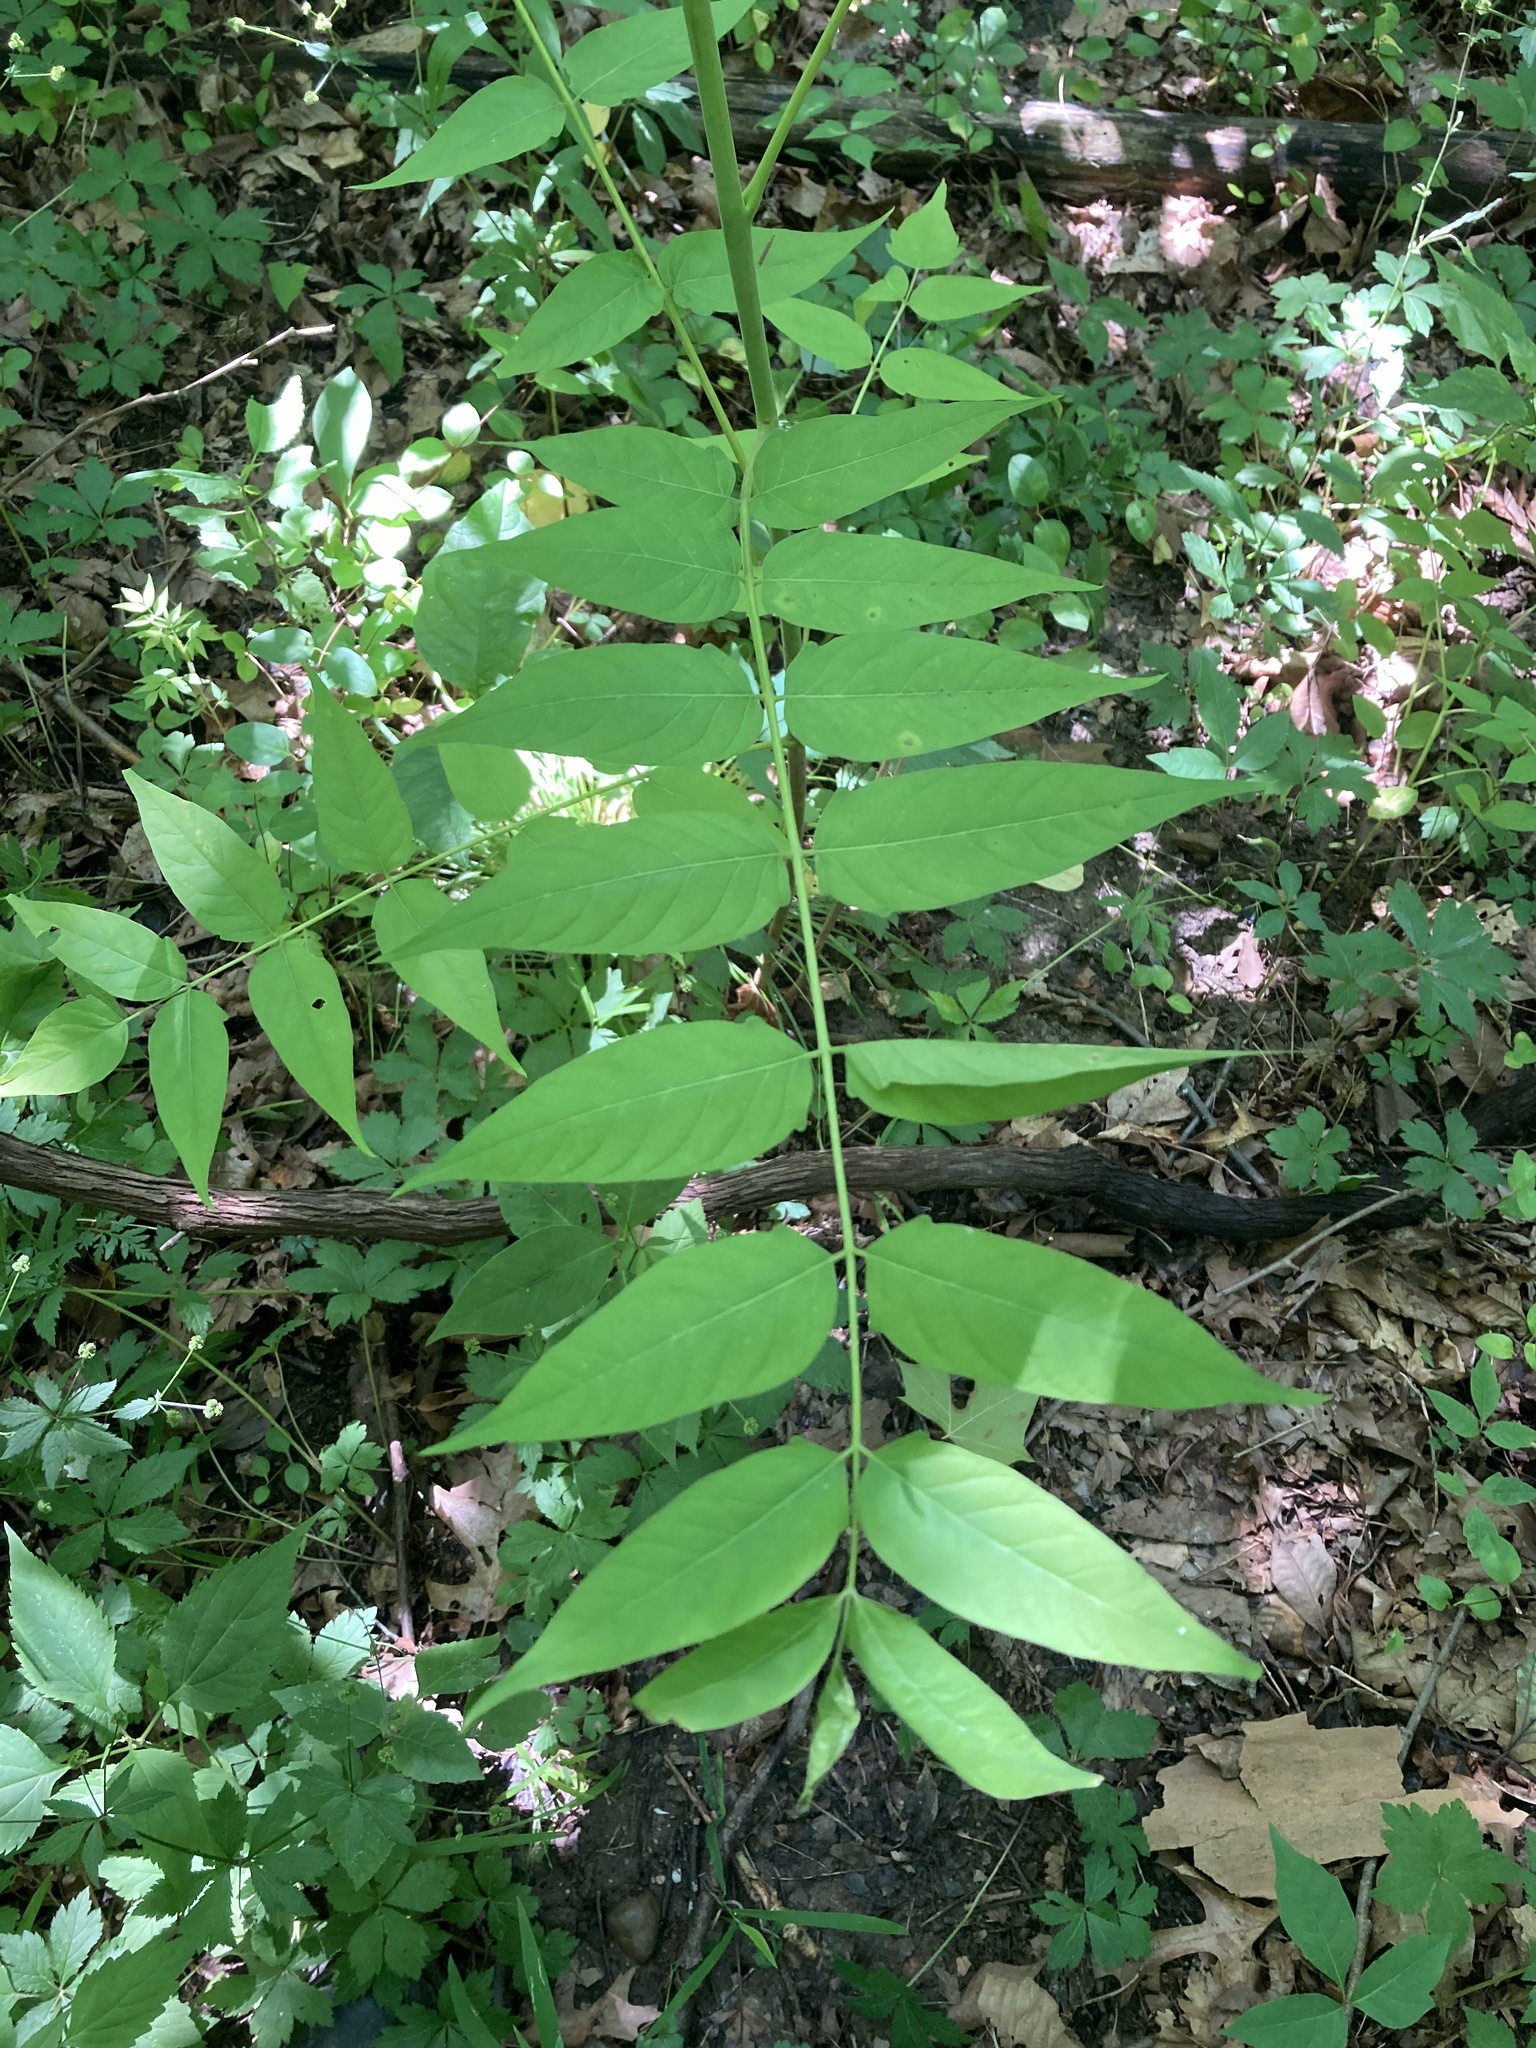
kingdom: Plantae
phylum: Tracheophyta
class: Magnoliopsida
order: Sapindales
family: Simaroubaceae
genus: Ailanthus
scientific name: Ailanthus altissima
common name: Tree-of-heaven
